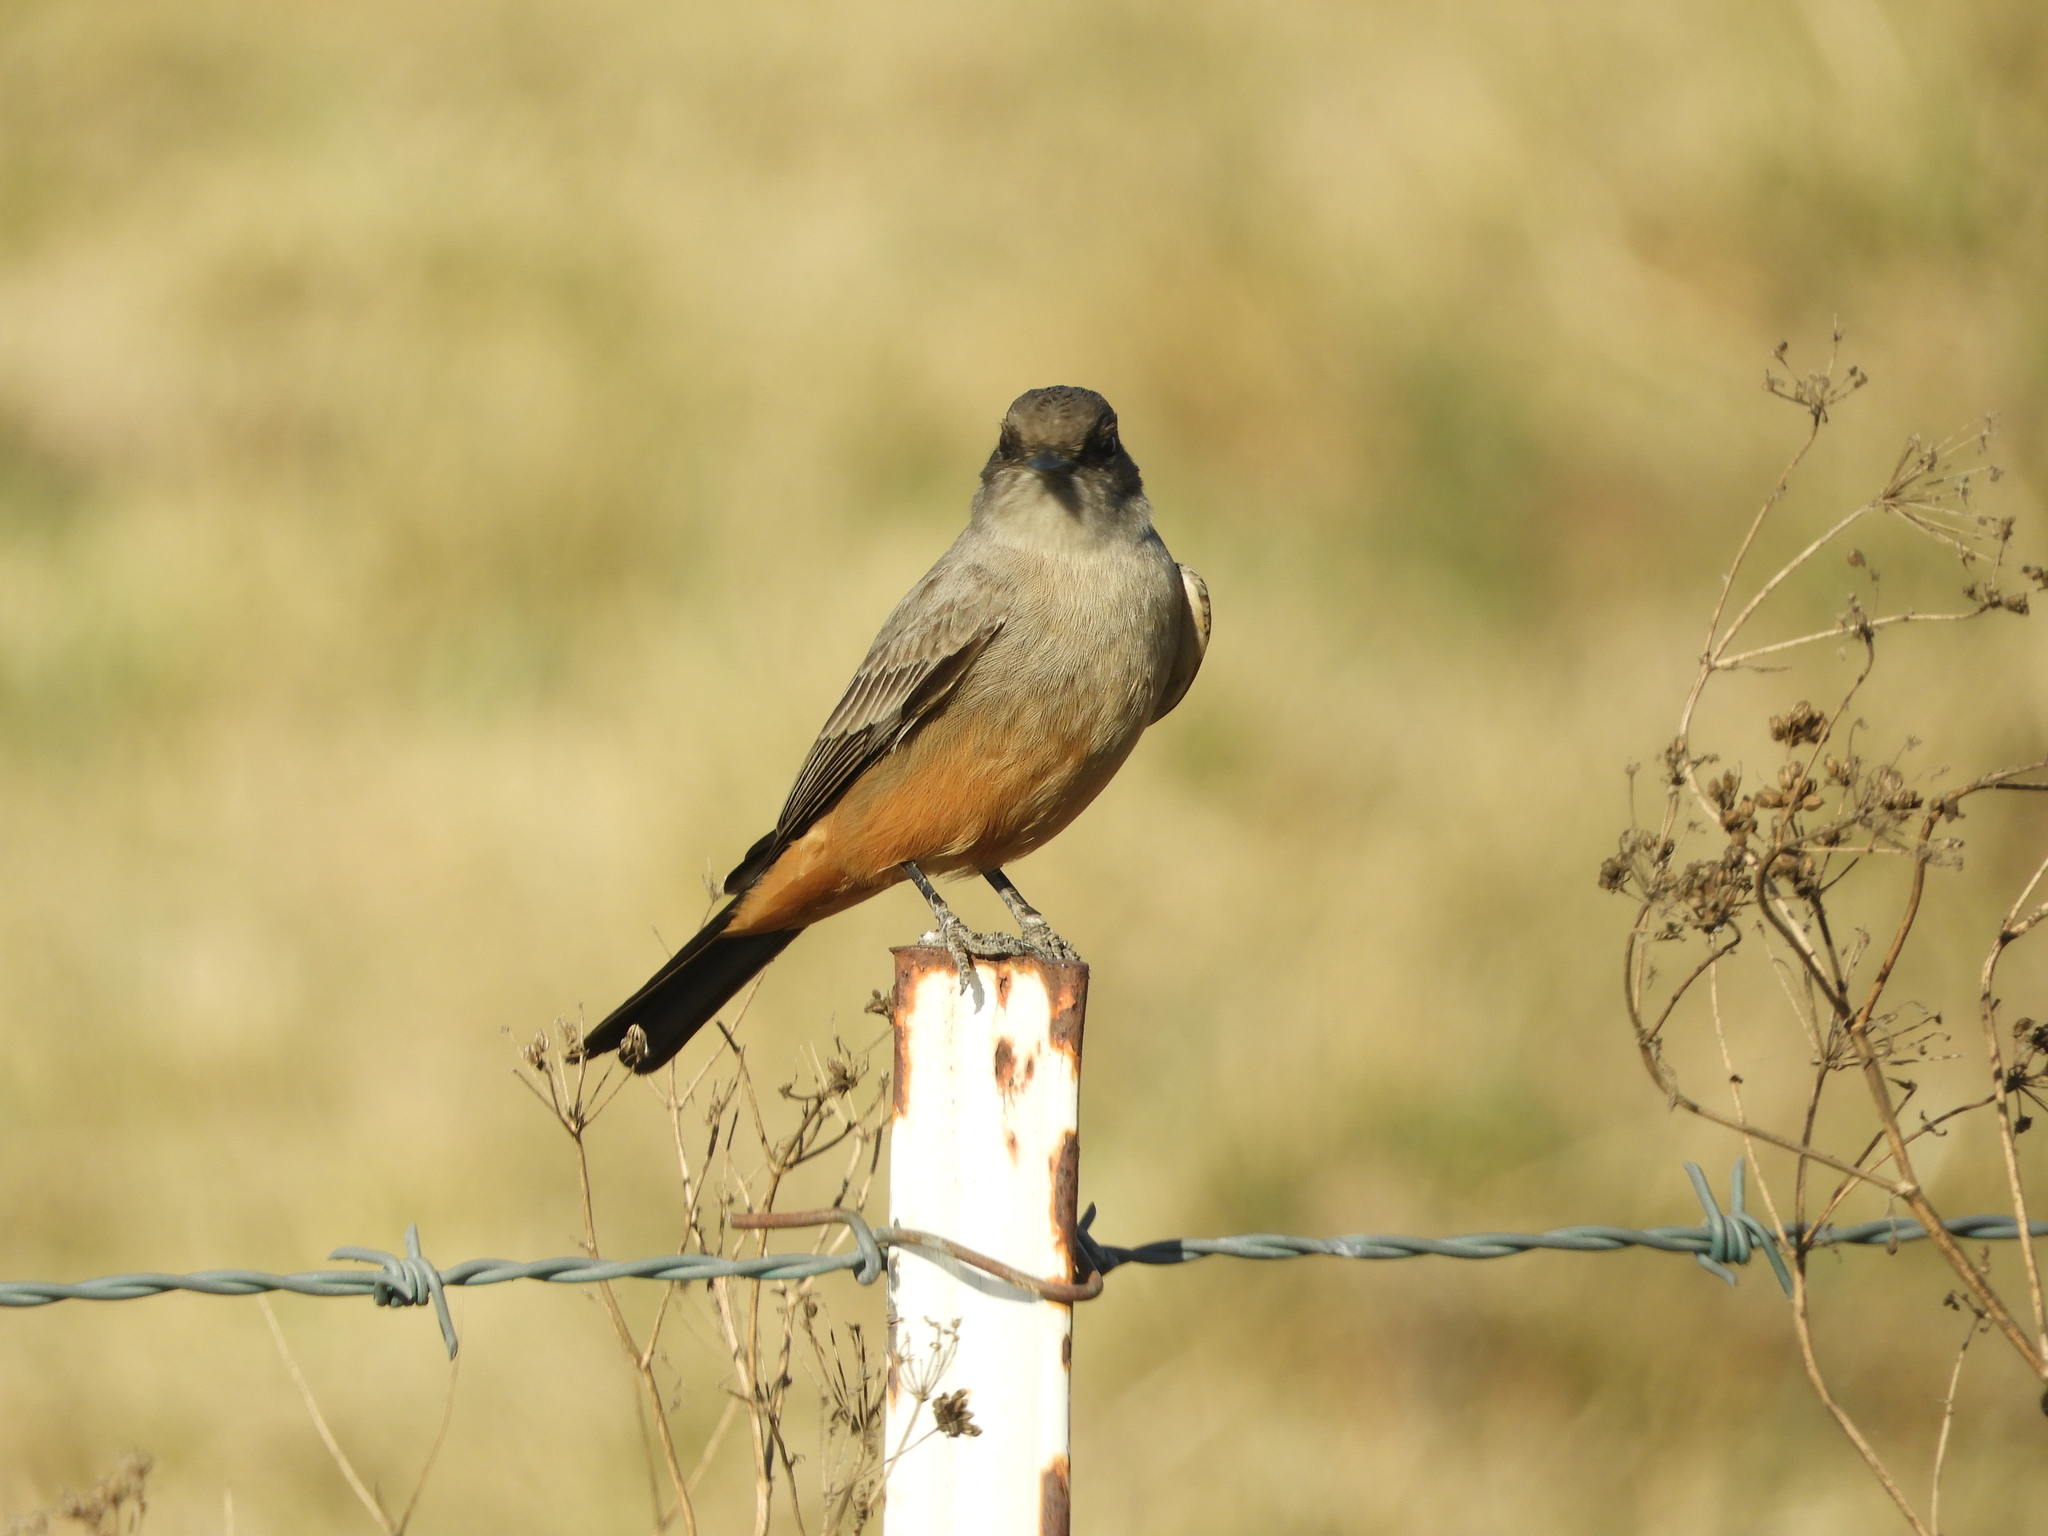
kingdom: Animalia
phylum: Chordata
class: Aves
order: Passeriformes
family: Tyrannidae
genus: Sayornis
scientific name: Sayornis saya
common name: Say's phoebe
